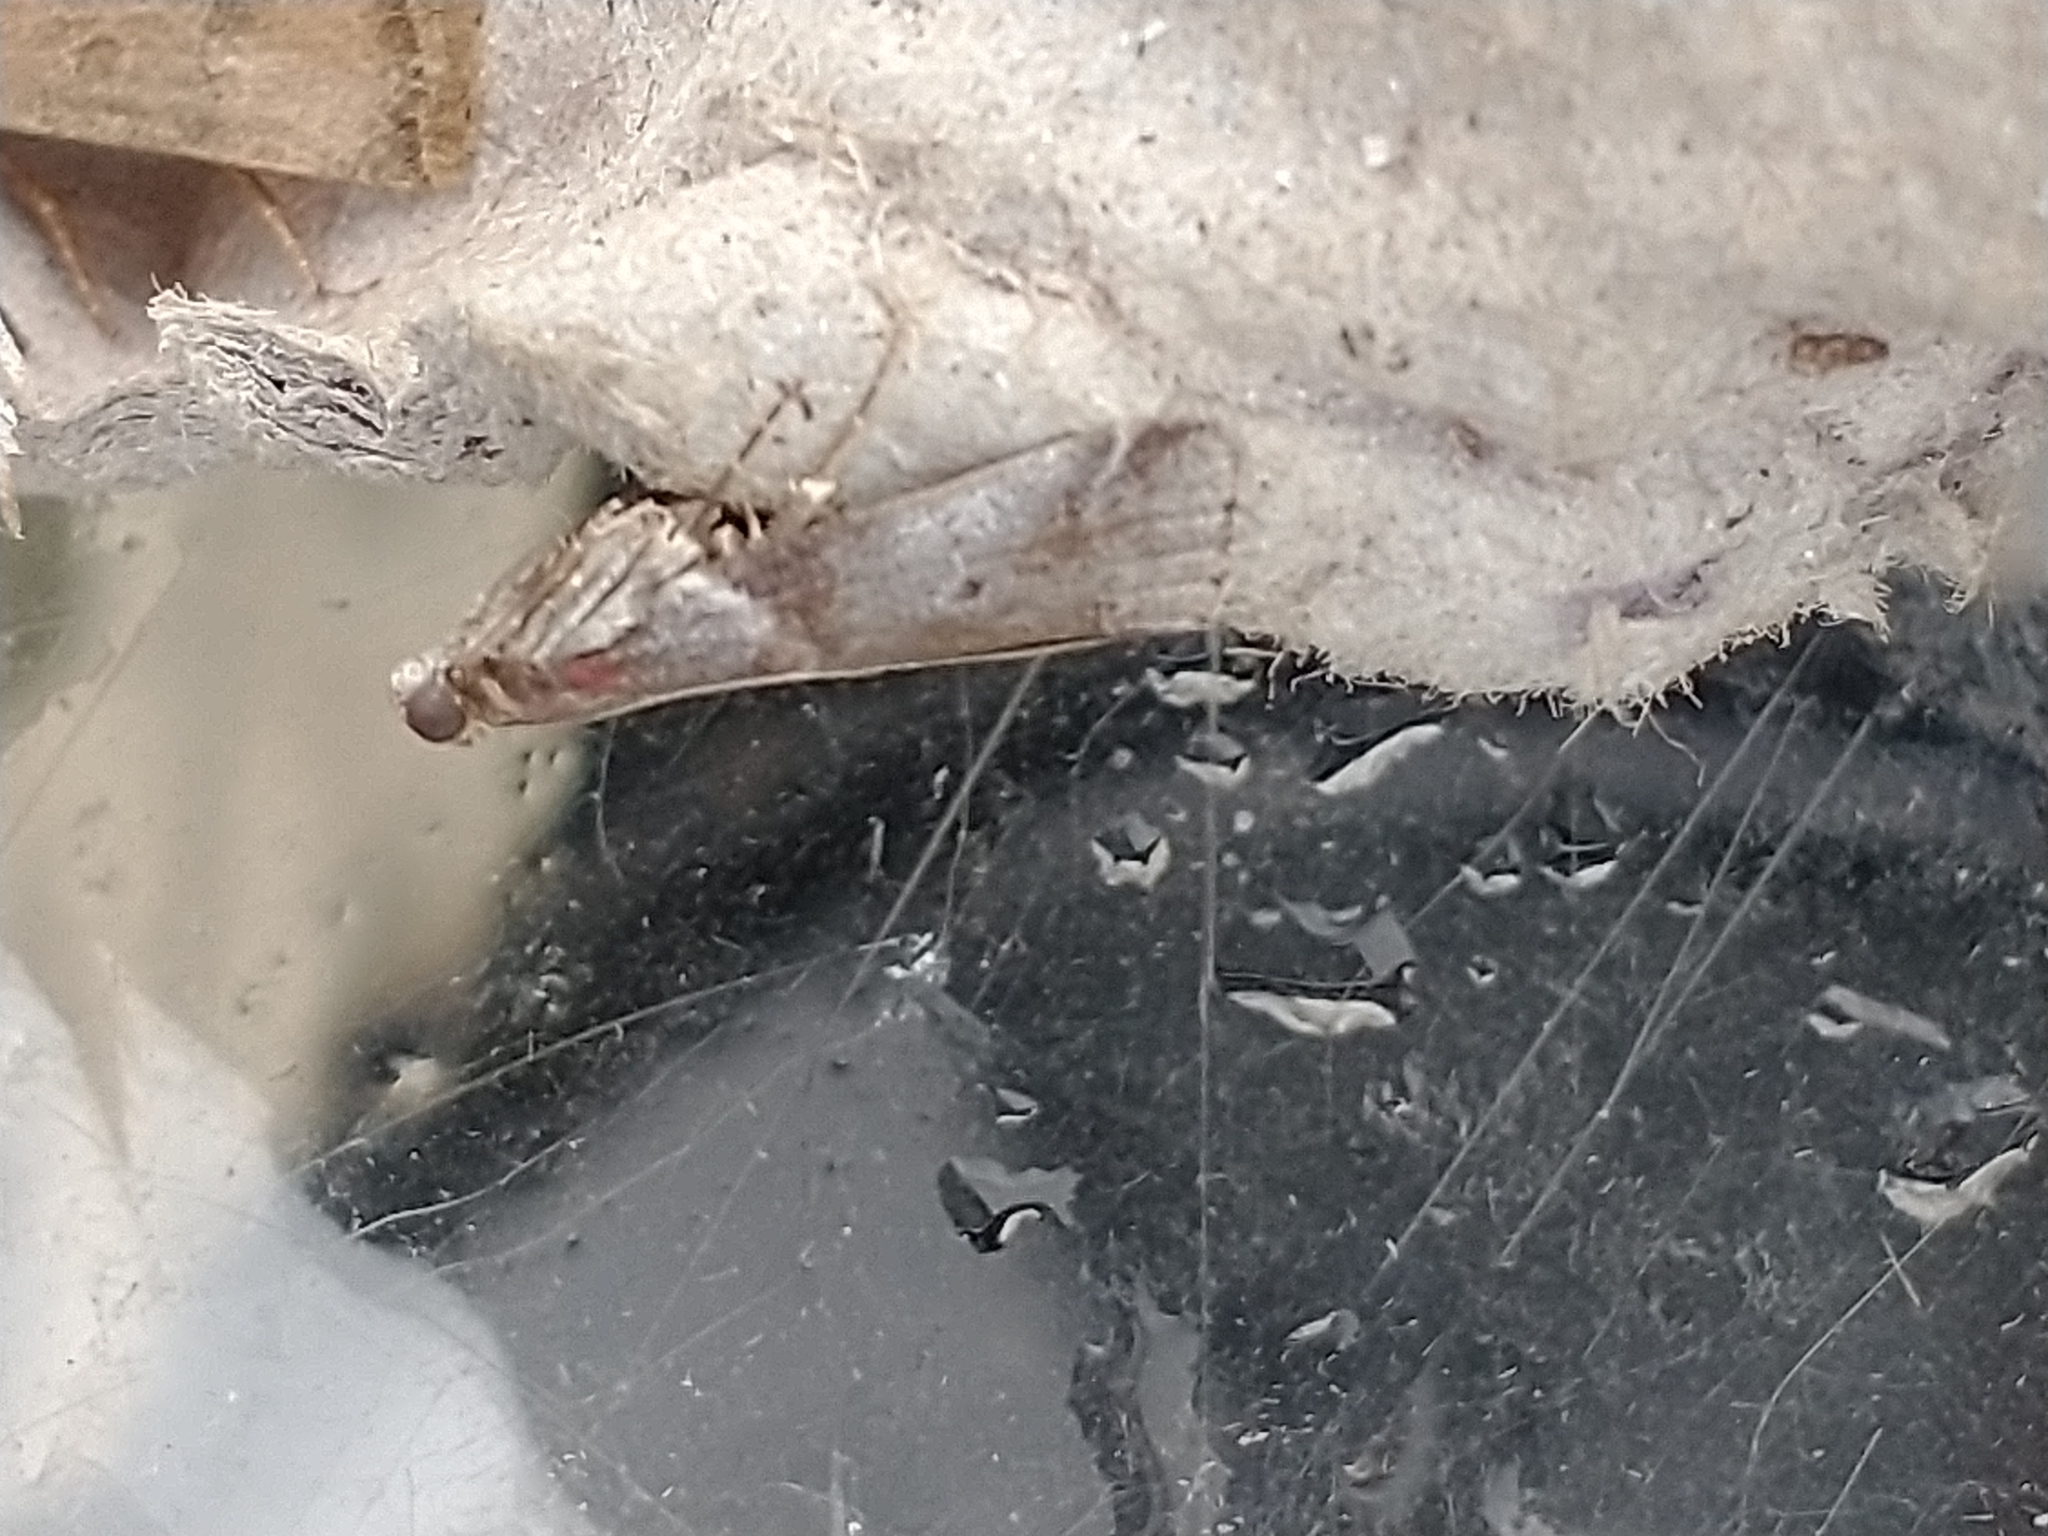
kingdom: Animalia
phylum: Arthropoda
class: Insecta
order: Lepidoptera
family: Pyralidae
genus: Acrobasis
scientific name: Acrobasis suavella
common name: Pyralid moth
